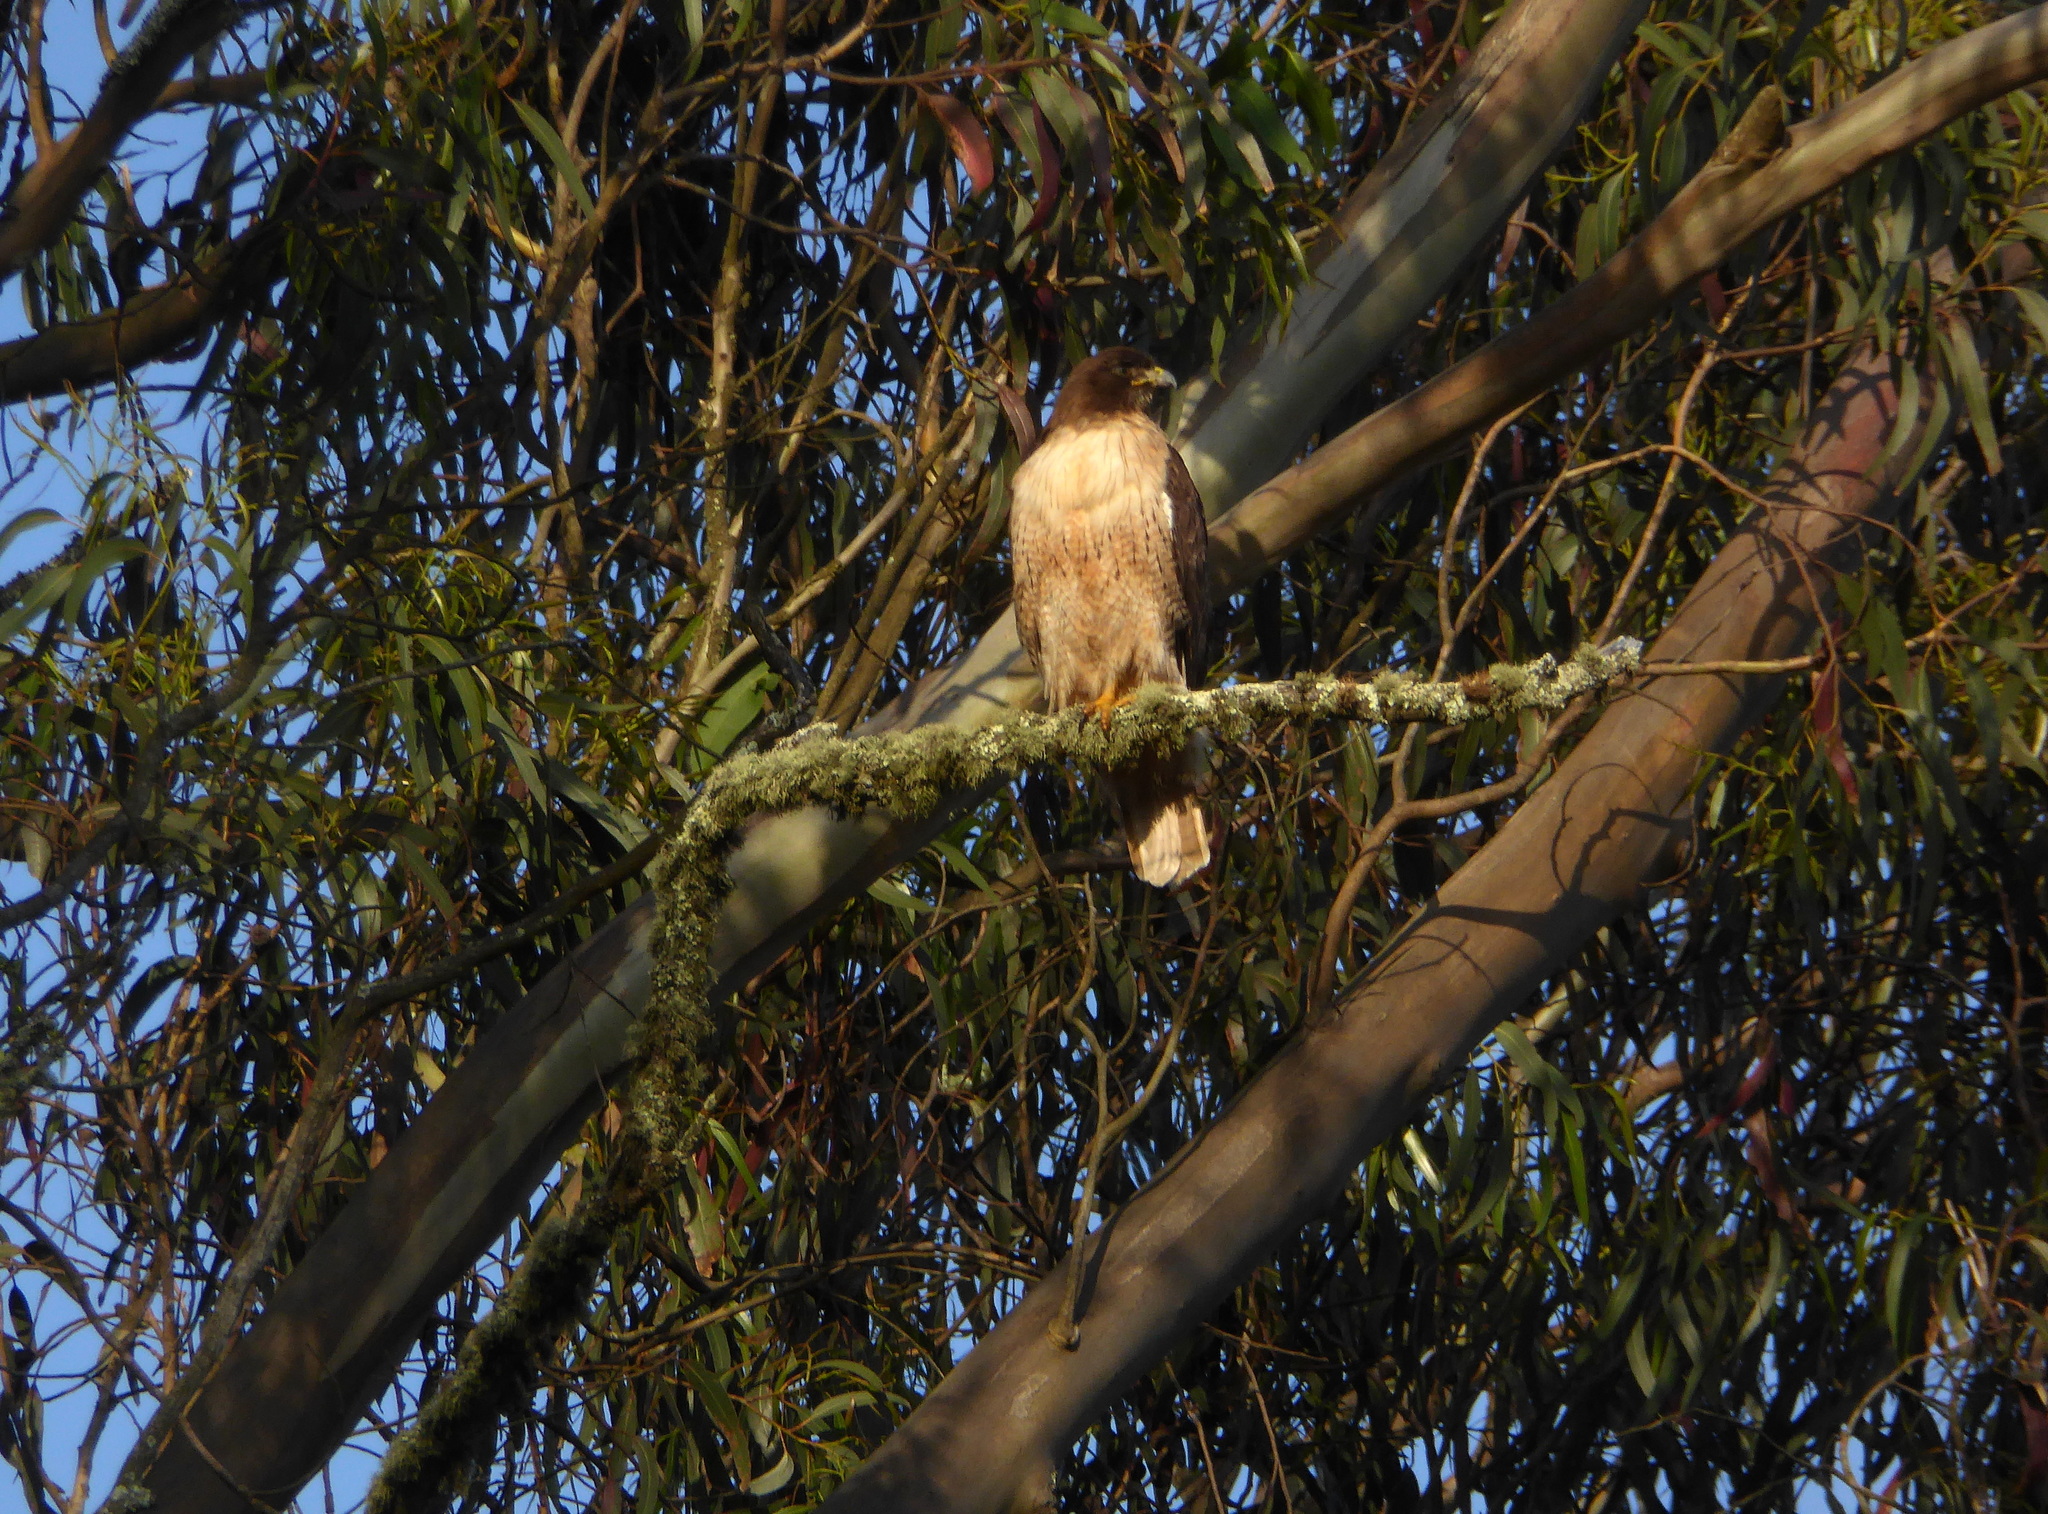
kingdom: Animalia
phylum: Chordata
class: Aves
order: Accipitriformes
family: Accipitridae
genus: Buteo
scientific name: Buteo jamaicensis
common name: Red-tailed hawk
